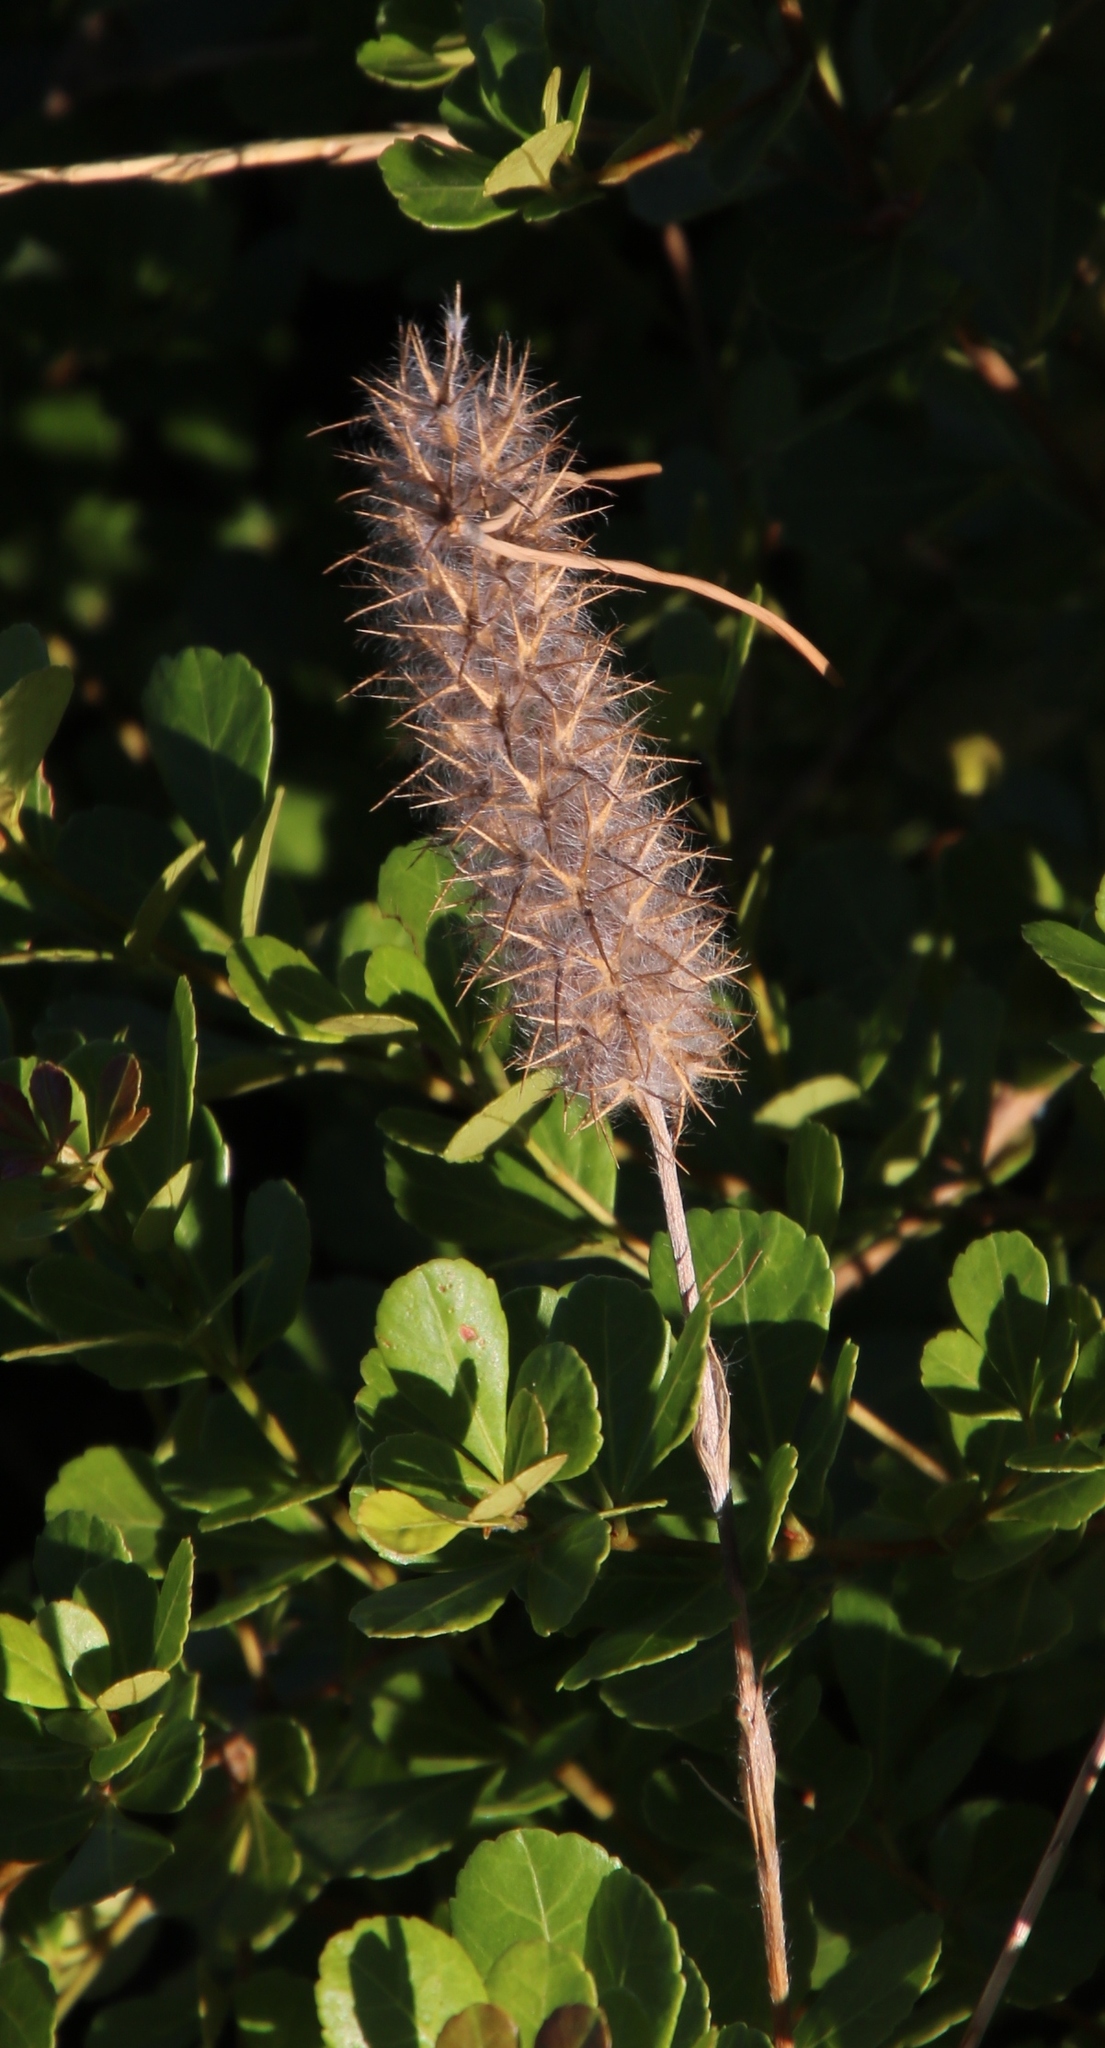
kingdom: Plantae
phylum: Tracheophyta
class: Magnoliopsida
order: Fabales
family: Fabaceae
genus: Trifolium
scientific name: Trifolium angustifolium
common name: Narrow clover
